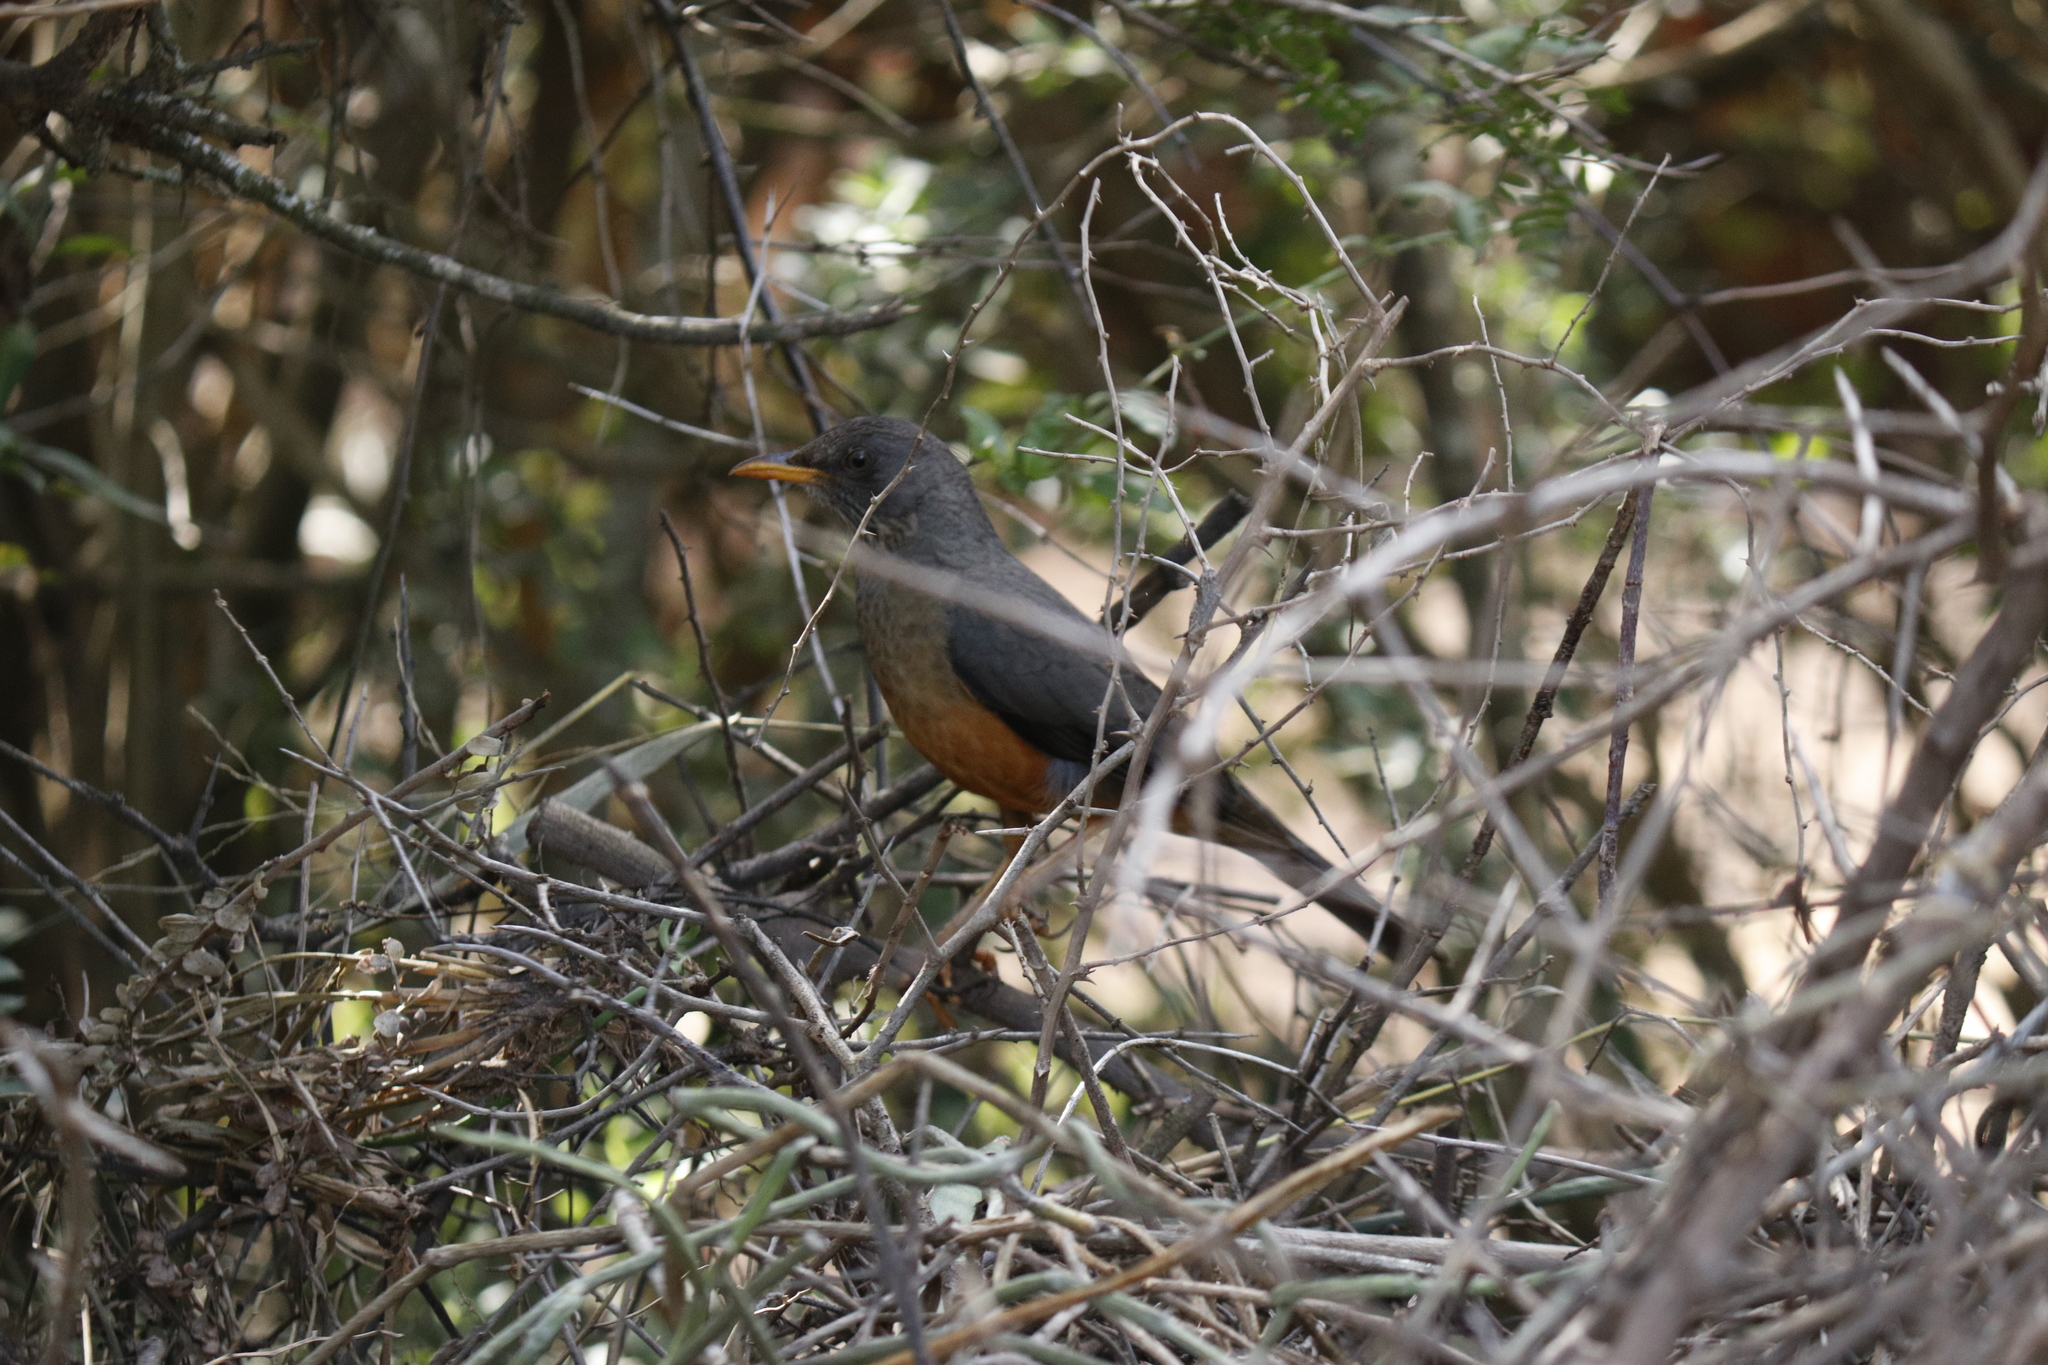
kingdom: Animalia
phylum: Chordata
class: Aves
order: Passeriformes
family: Turdidae
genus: Turdus
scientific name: Turdus olivaceus
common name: Olive thrush
